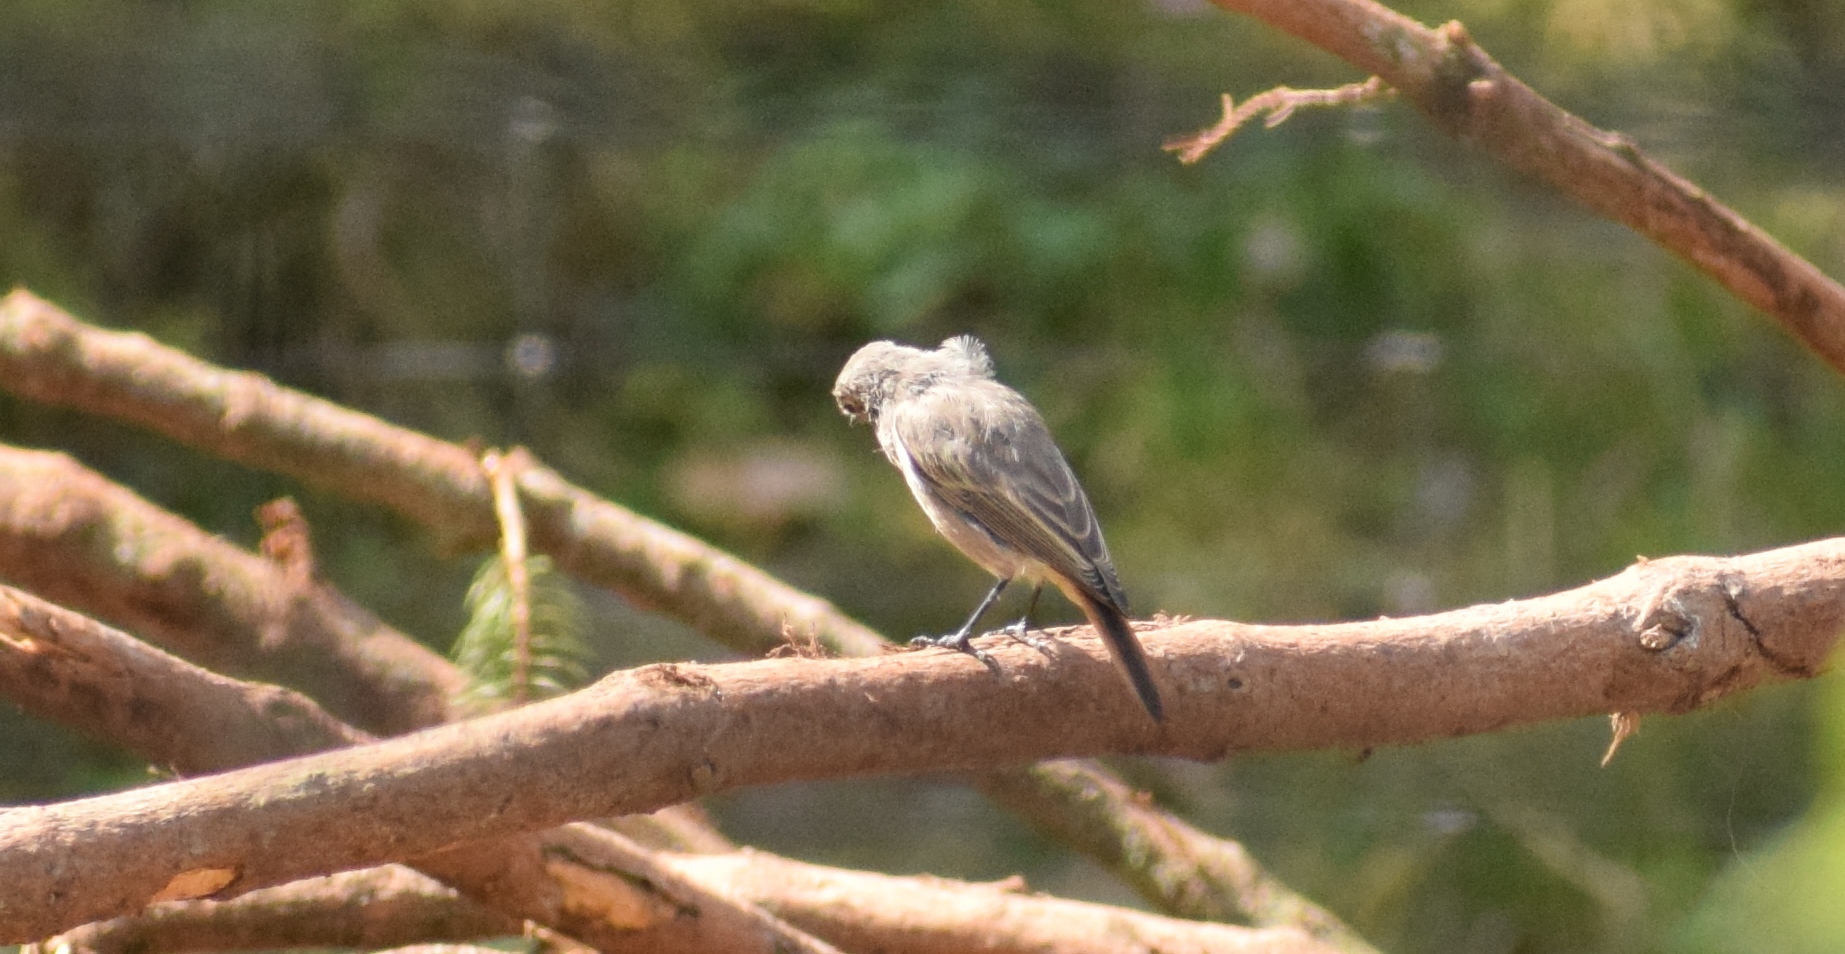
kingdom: Animalia
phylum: Chordata
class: Aves
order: Passeriformes
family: Muscicapidae
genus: Phoenicurus
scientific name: Phoenicurus ochruros
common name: Black redstart
